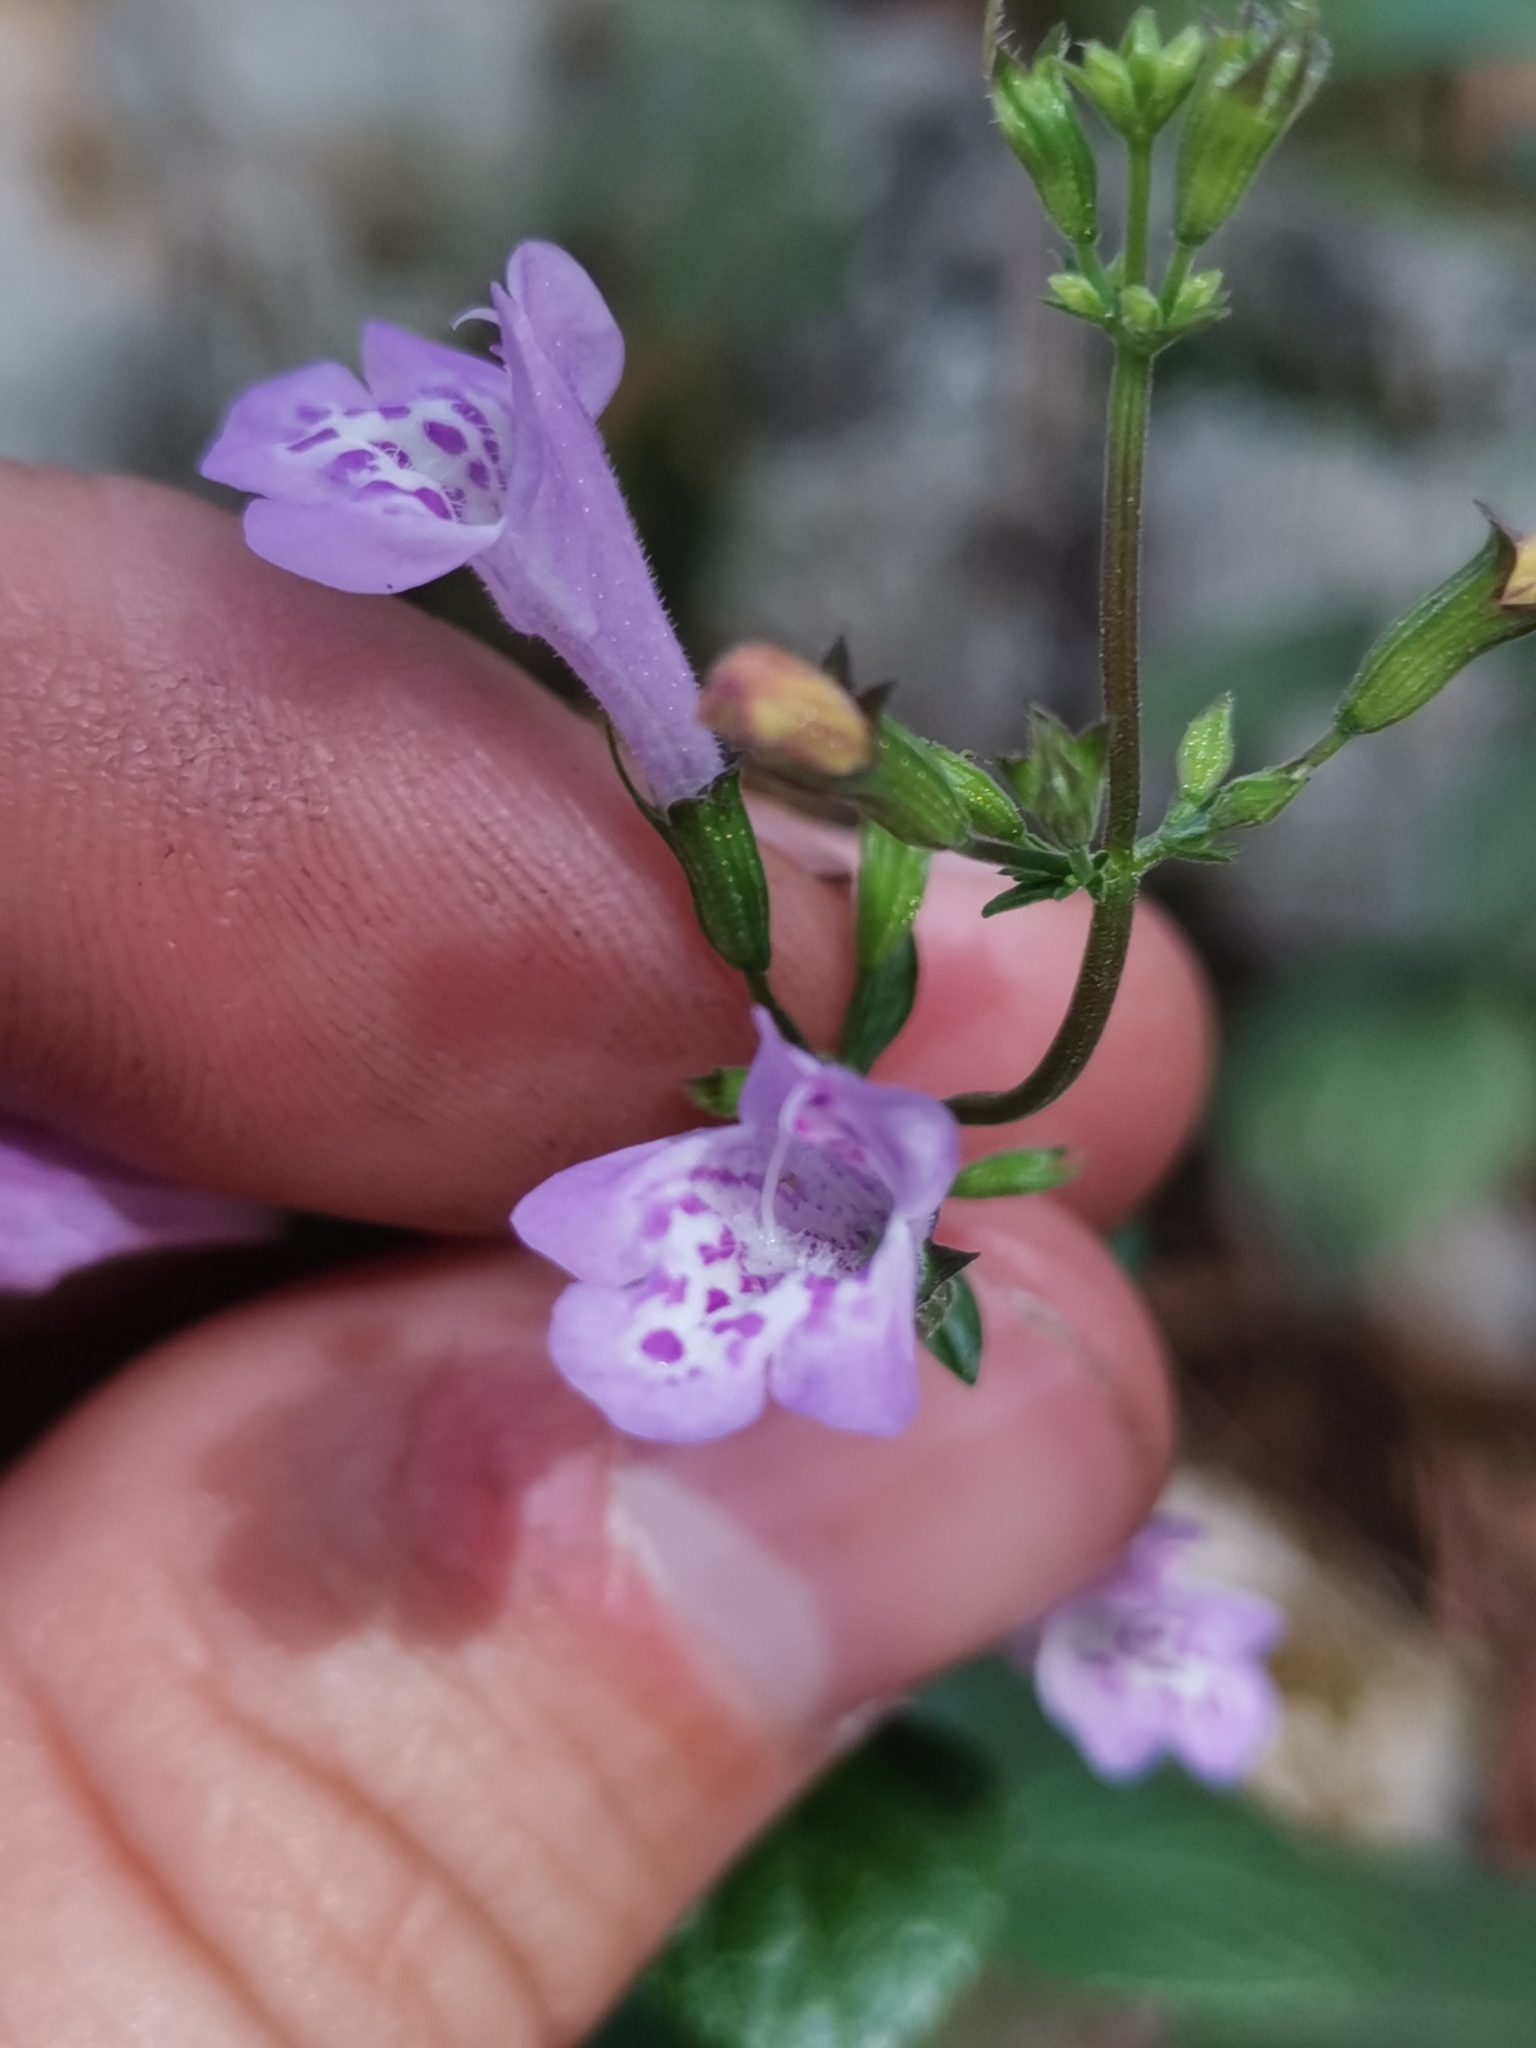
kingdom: Plantae
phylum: Tracheophyta
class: Magnoliopsida
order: Lamiales
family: Lamiaceae
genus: Clinopodium
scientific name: Clinopodium menthifolium
